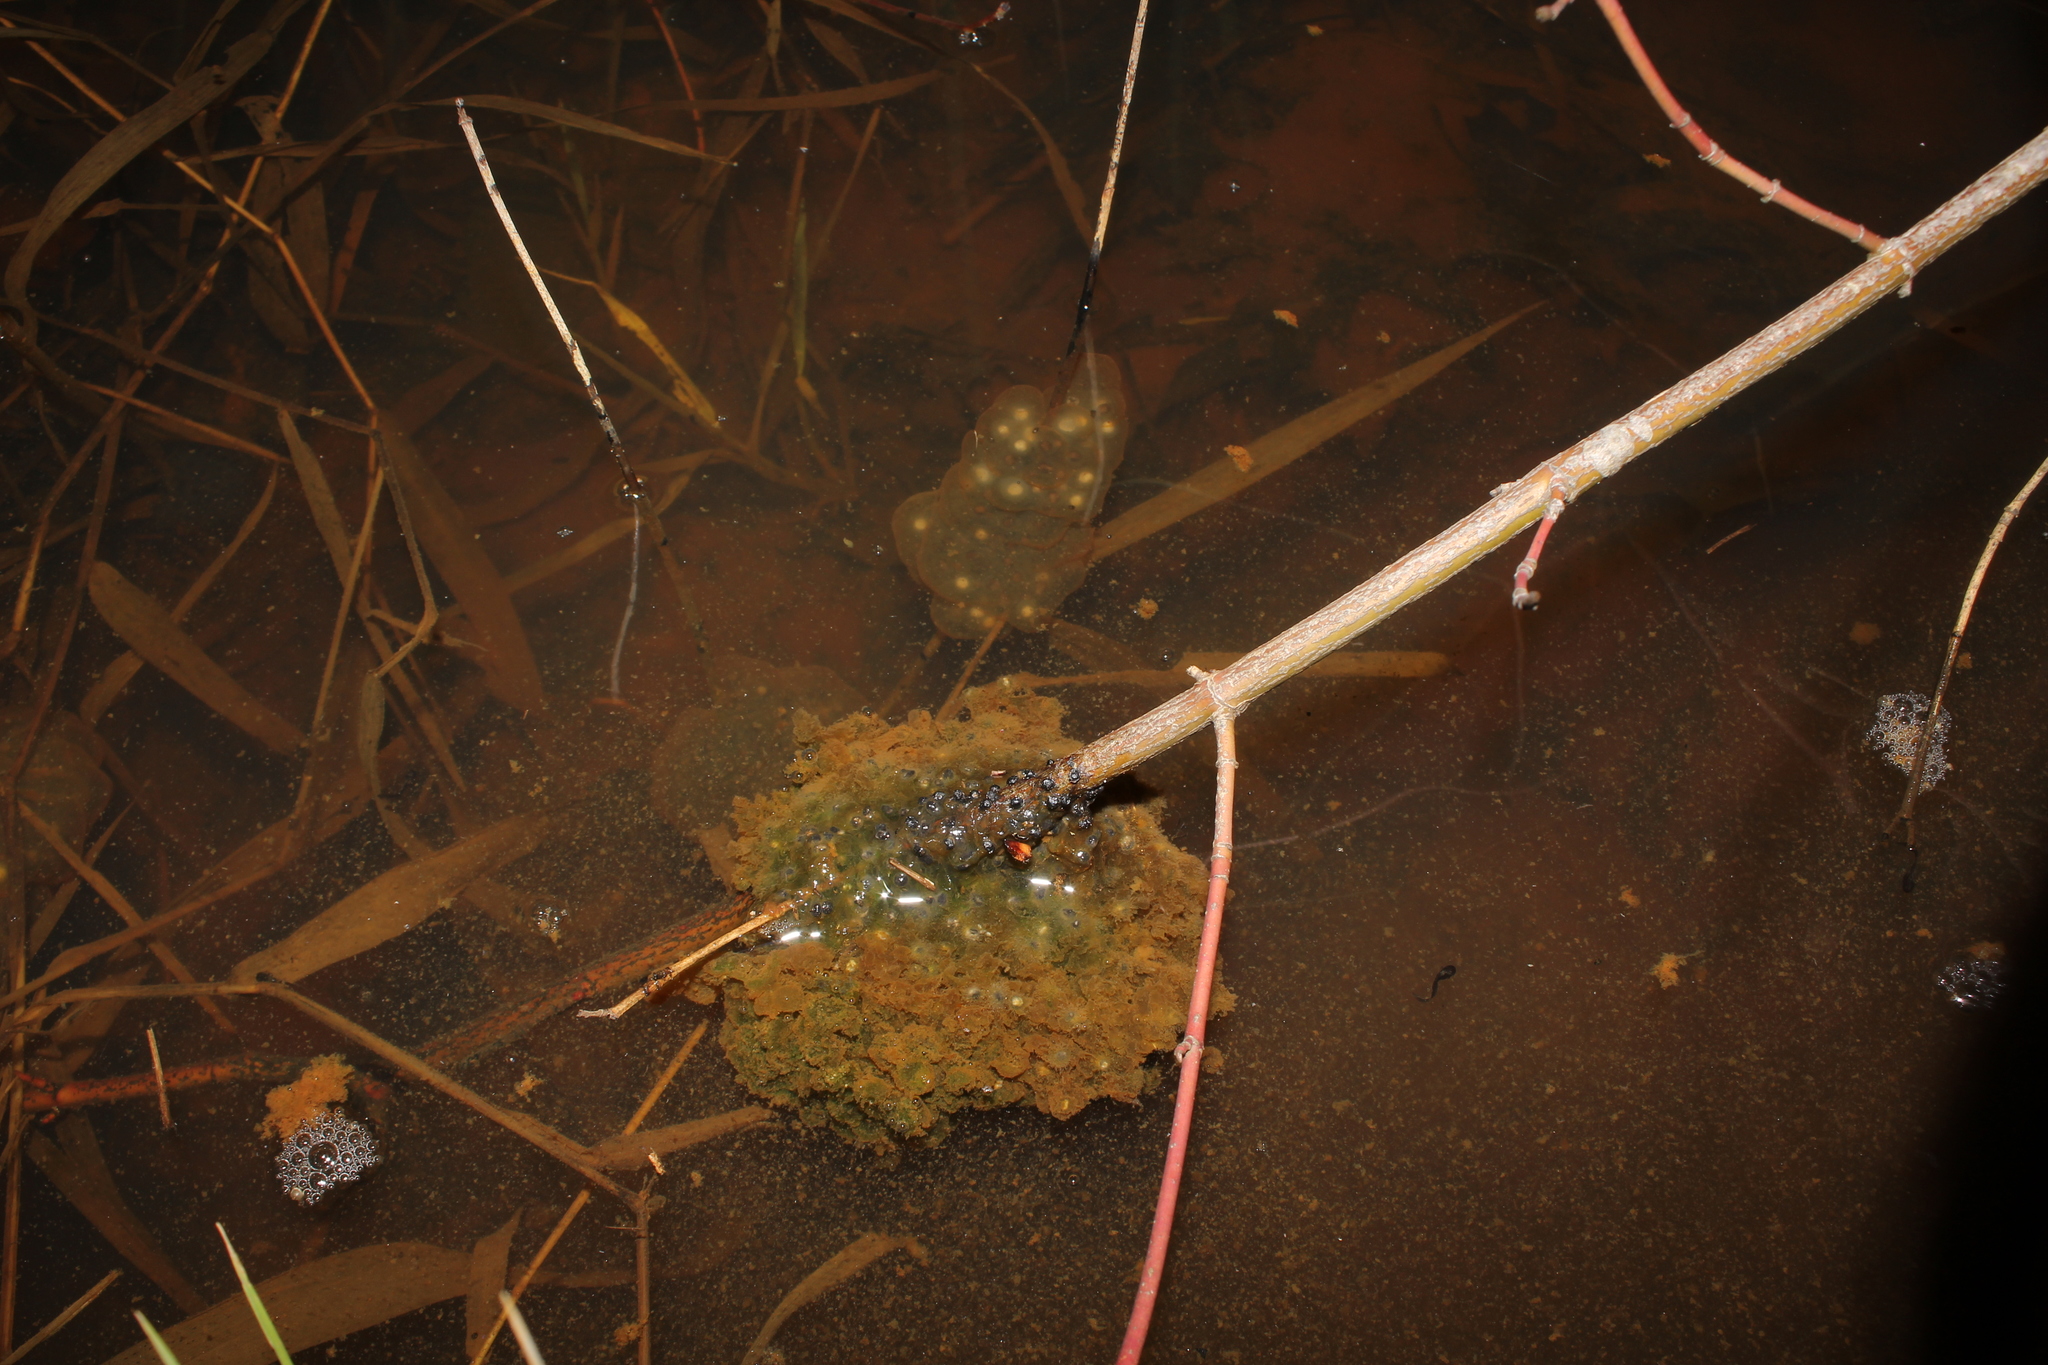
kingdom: Animalia
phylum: Chordata
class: Amphibia
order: Anura
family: Ranidae
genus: Lithobates
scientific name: Lithobates sylvaticus
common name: Wood frog
